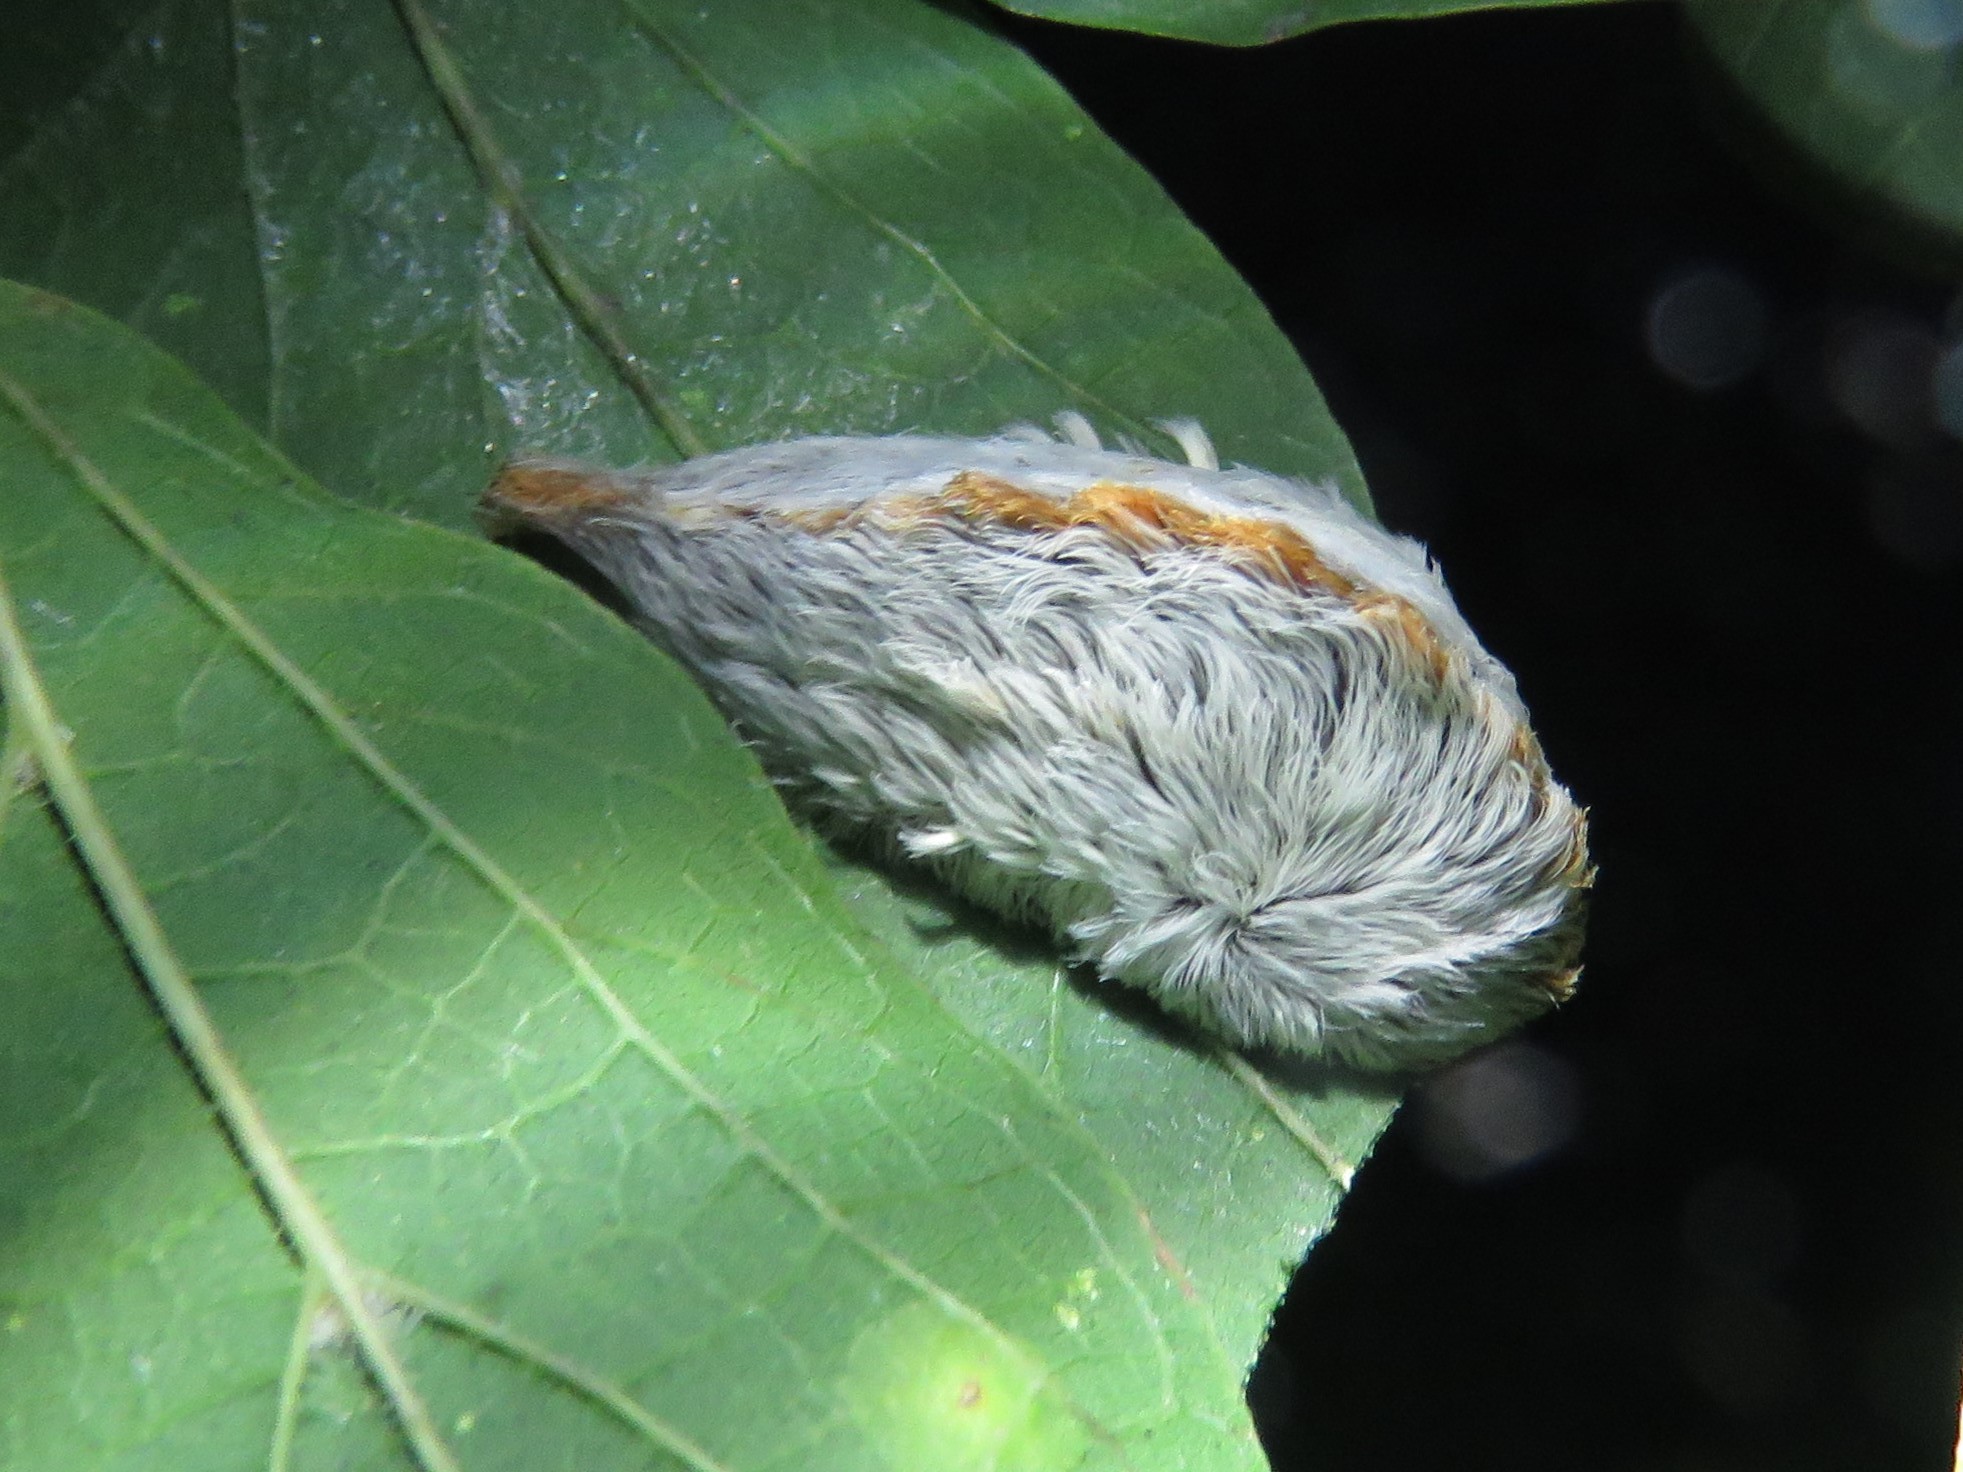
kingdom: Animalia
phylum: Arthropoda
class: Insecta
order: Lepidoptera
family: Megalopygidae
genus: Megalopyge
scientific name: Megalopyge opercularis
